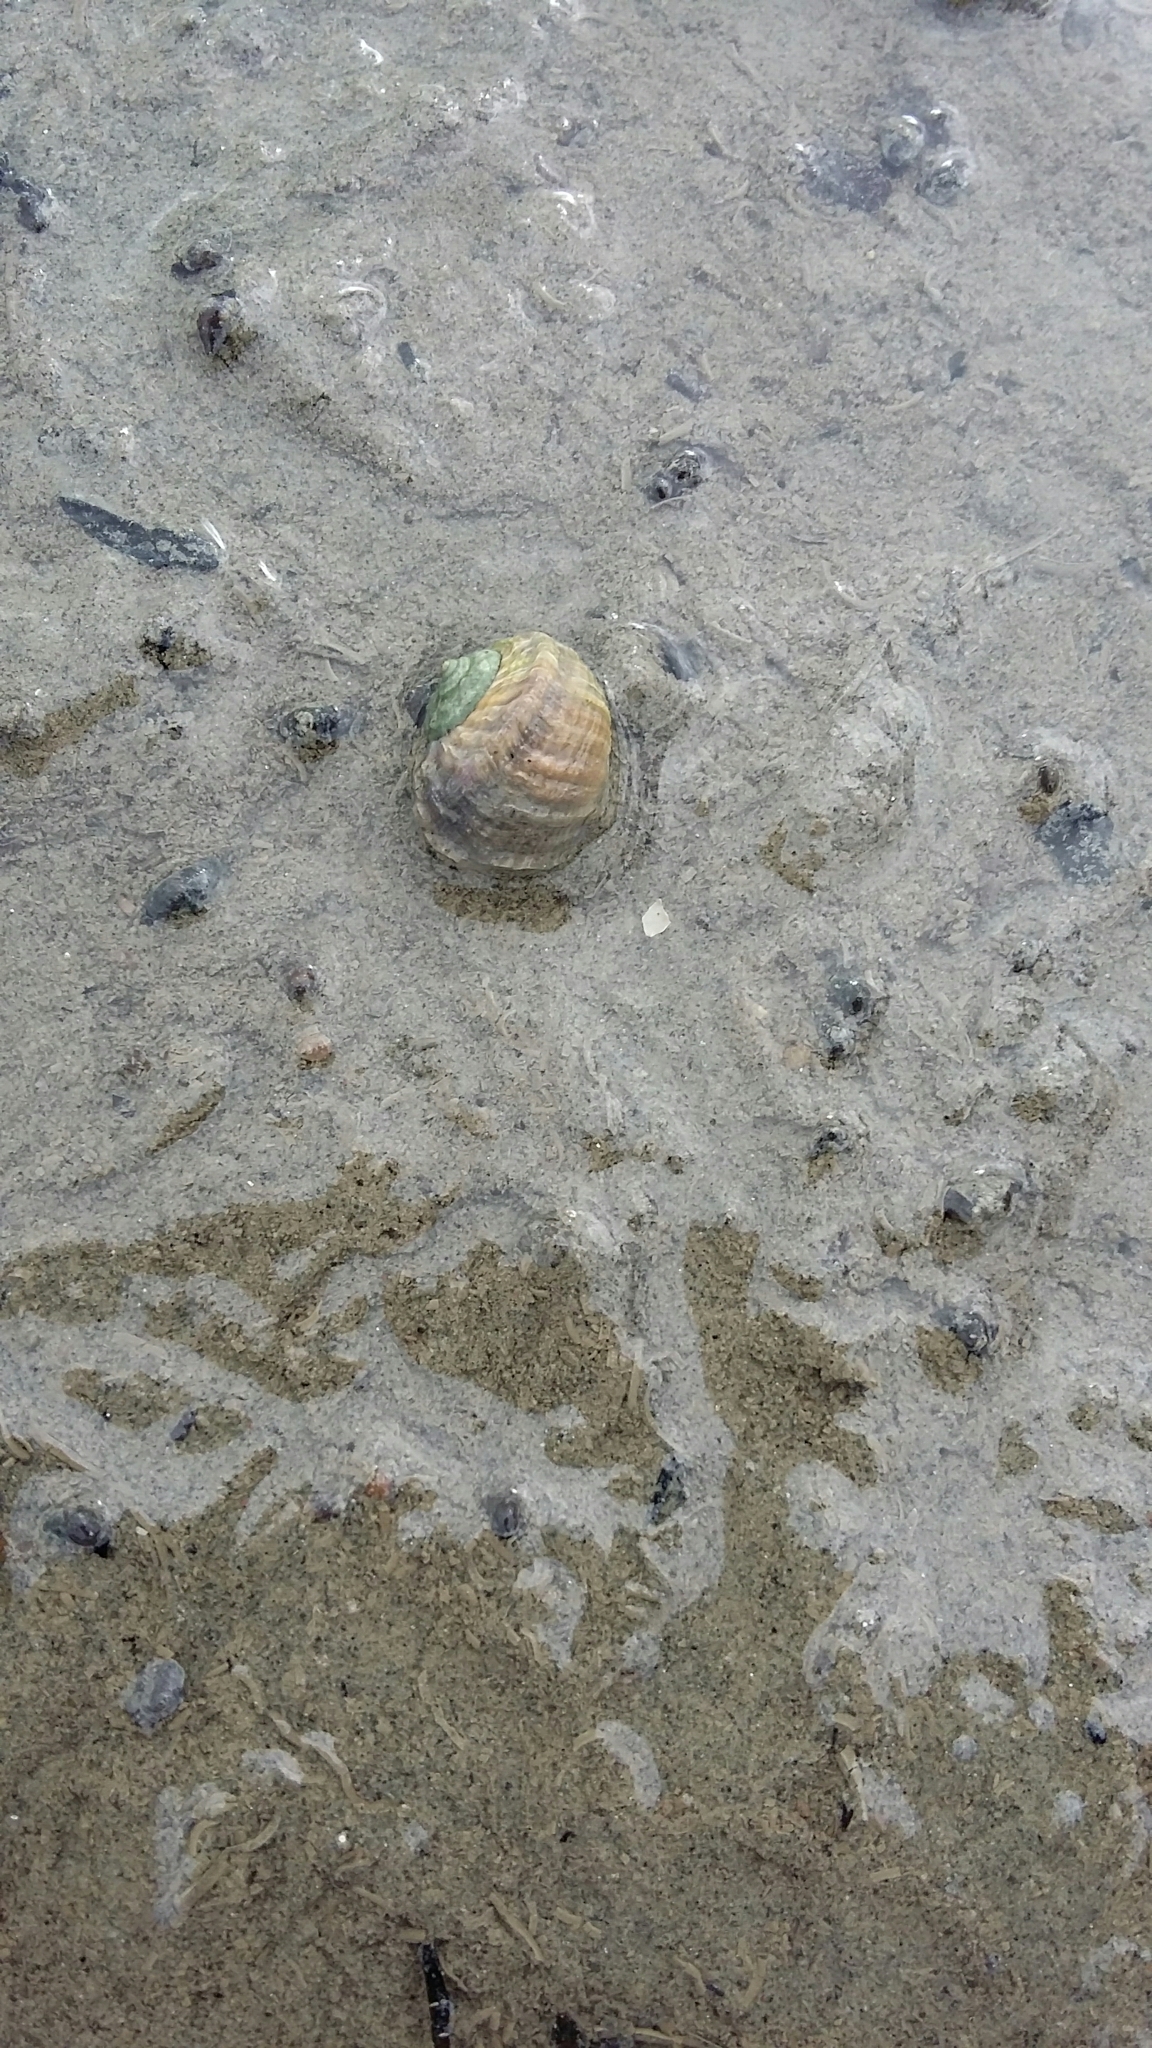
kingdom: Animalia
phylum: Mollusca
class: Gastropoda
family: Amphibolidae
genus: Amphibola
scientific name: Amphibola crenata
